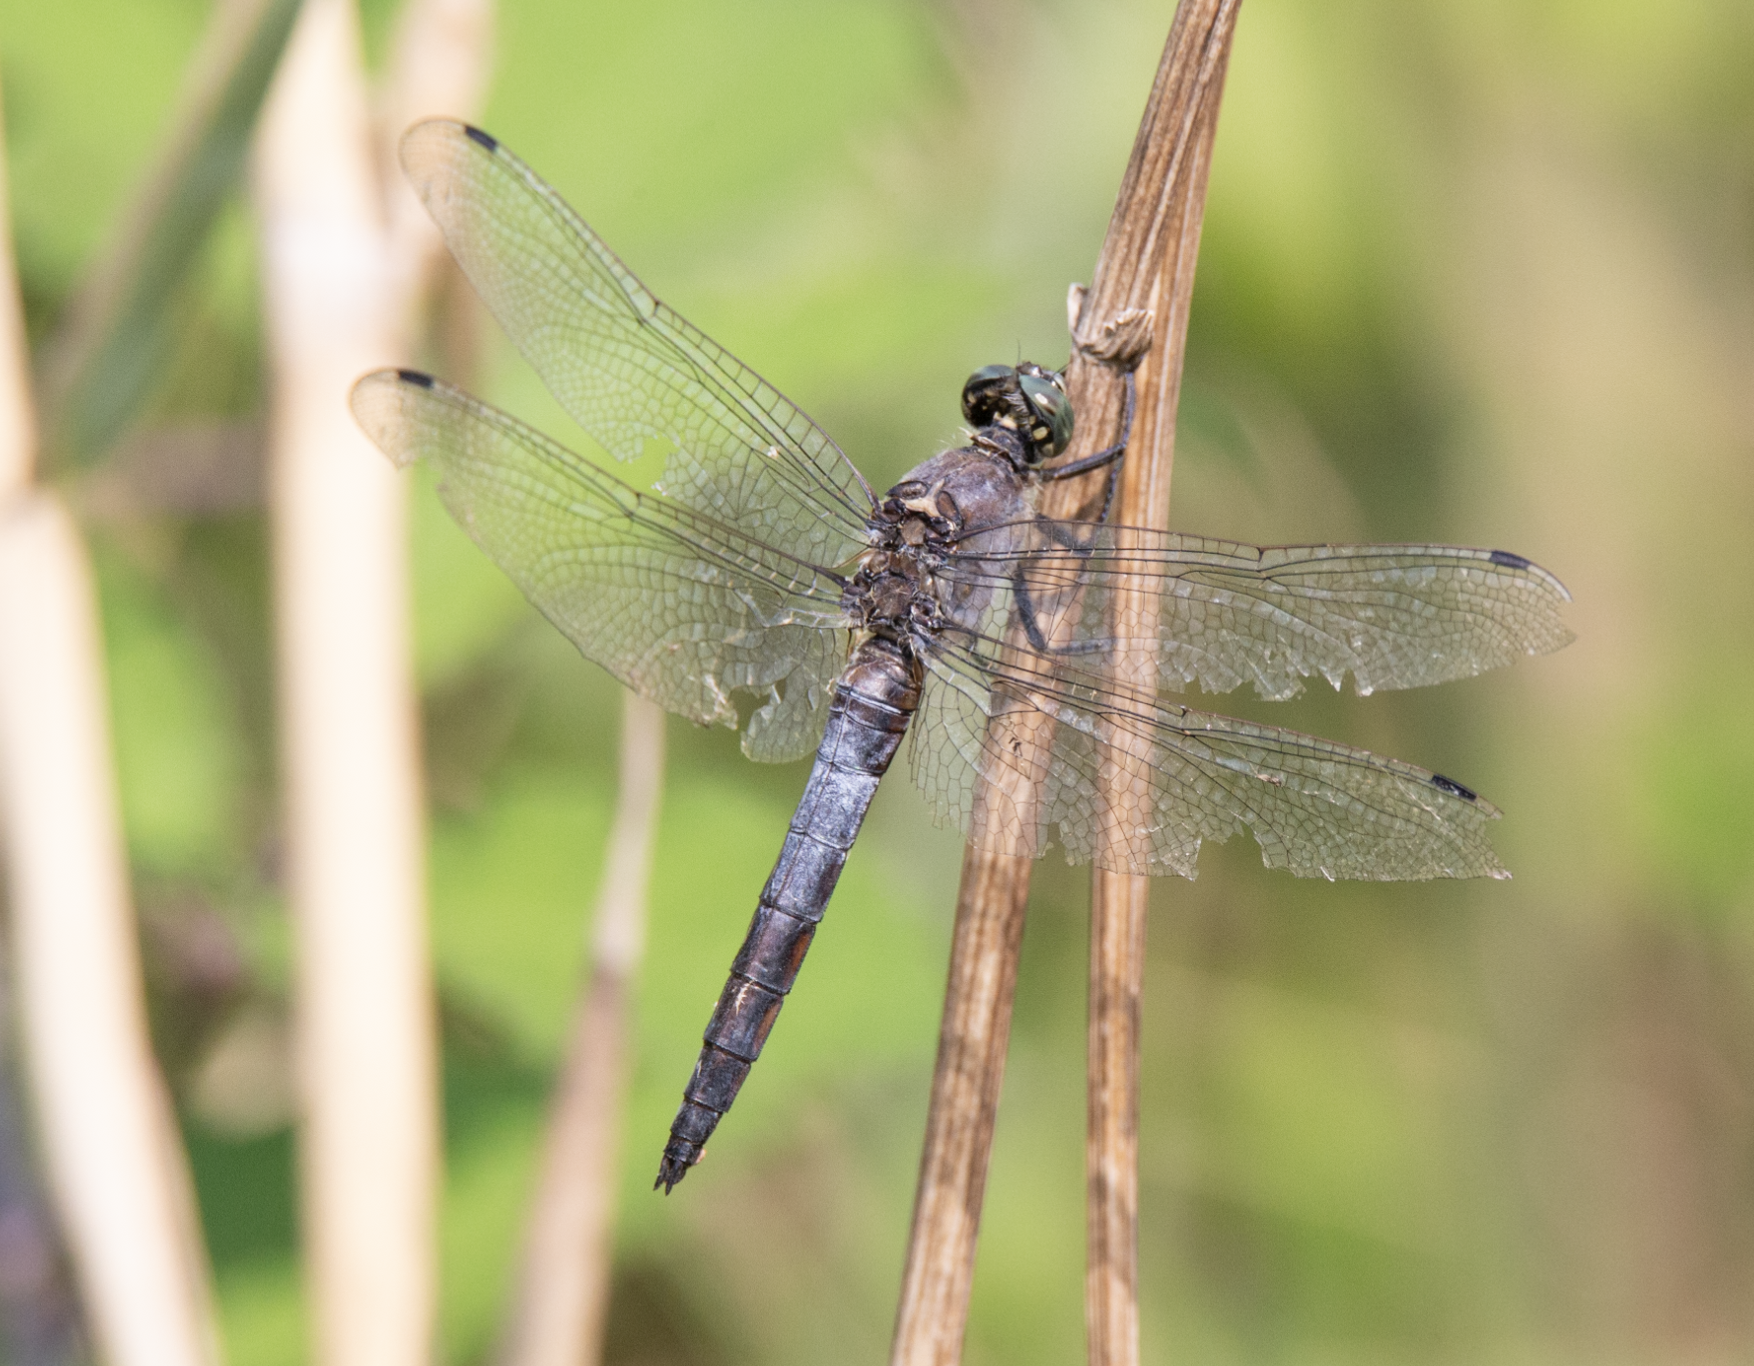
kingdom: Animalia
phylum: Arthropoda
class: Insecta
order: Odonata
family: Libellulidae
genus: Orthetrum
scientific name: Orthetrum cancellatum
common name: Black-tailed skimmer
